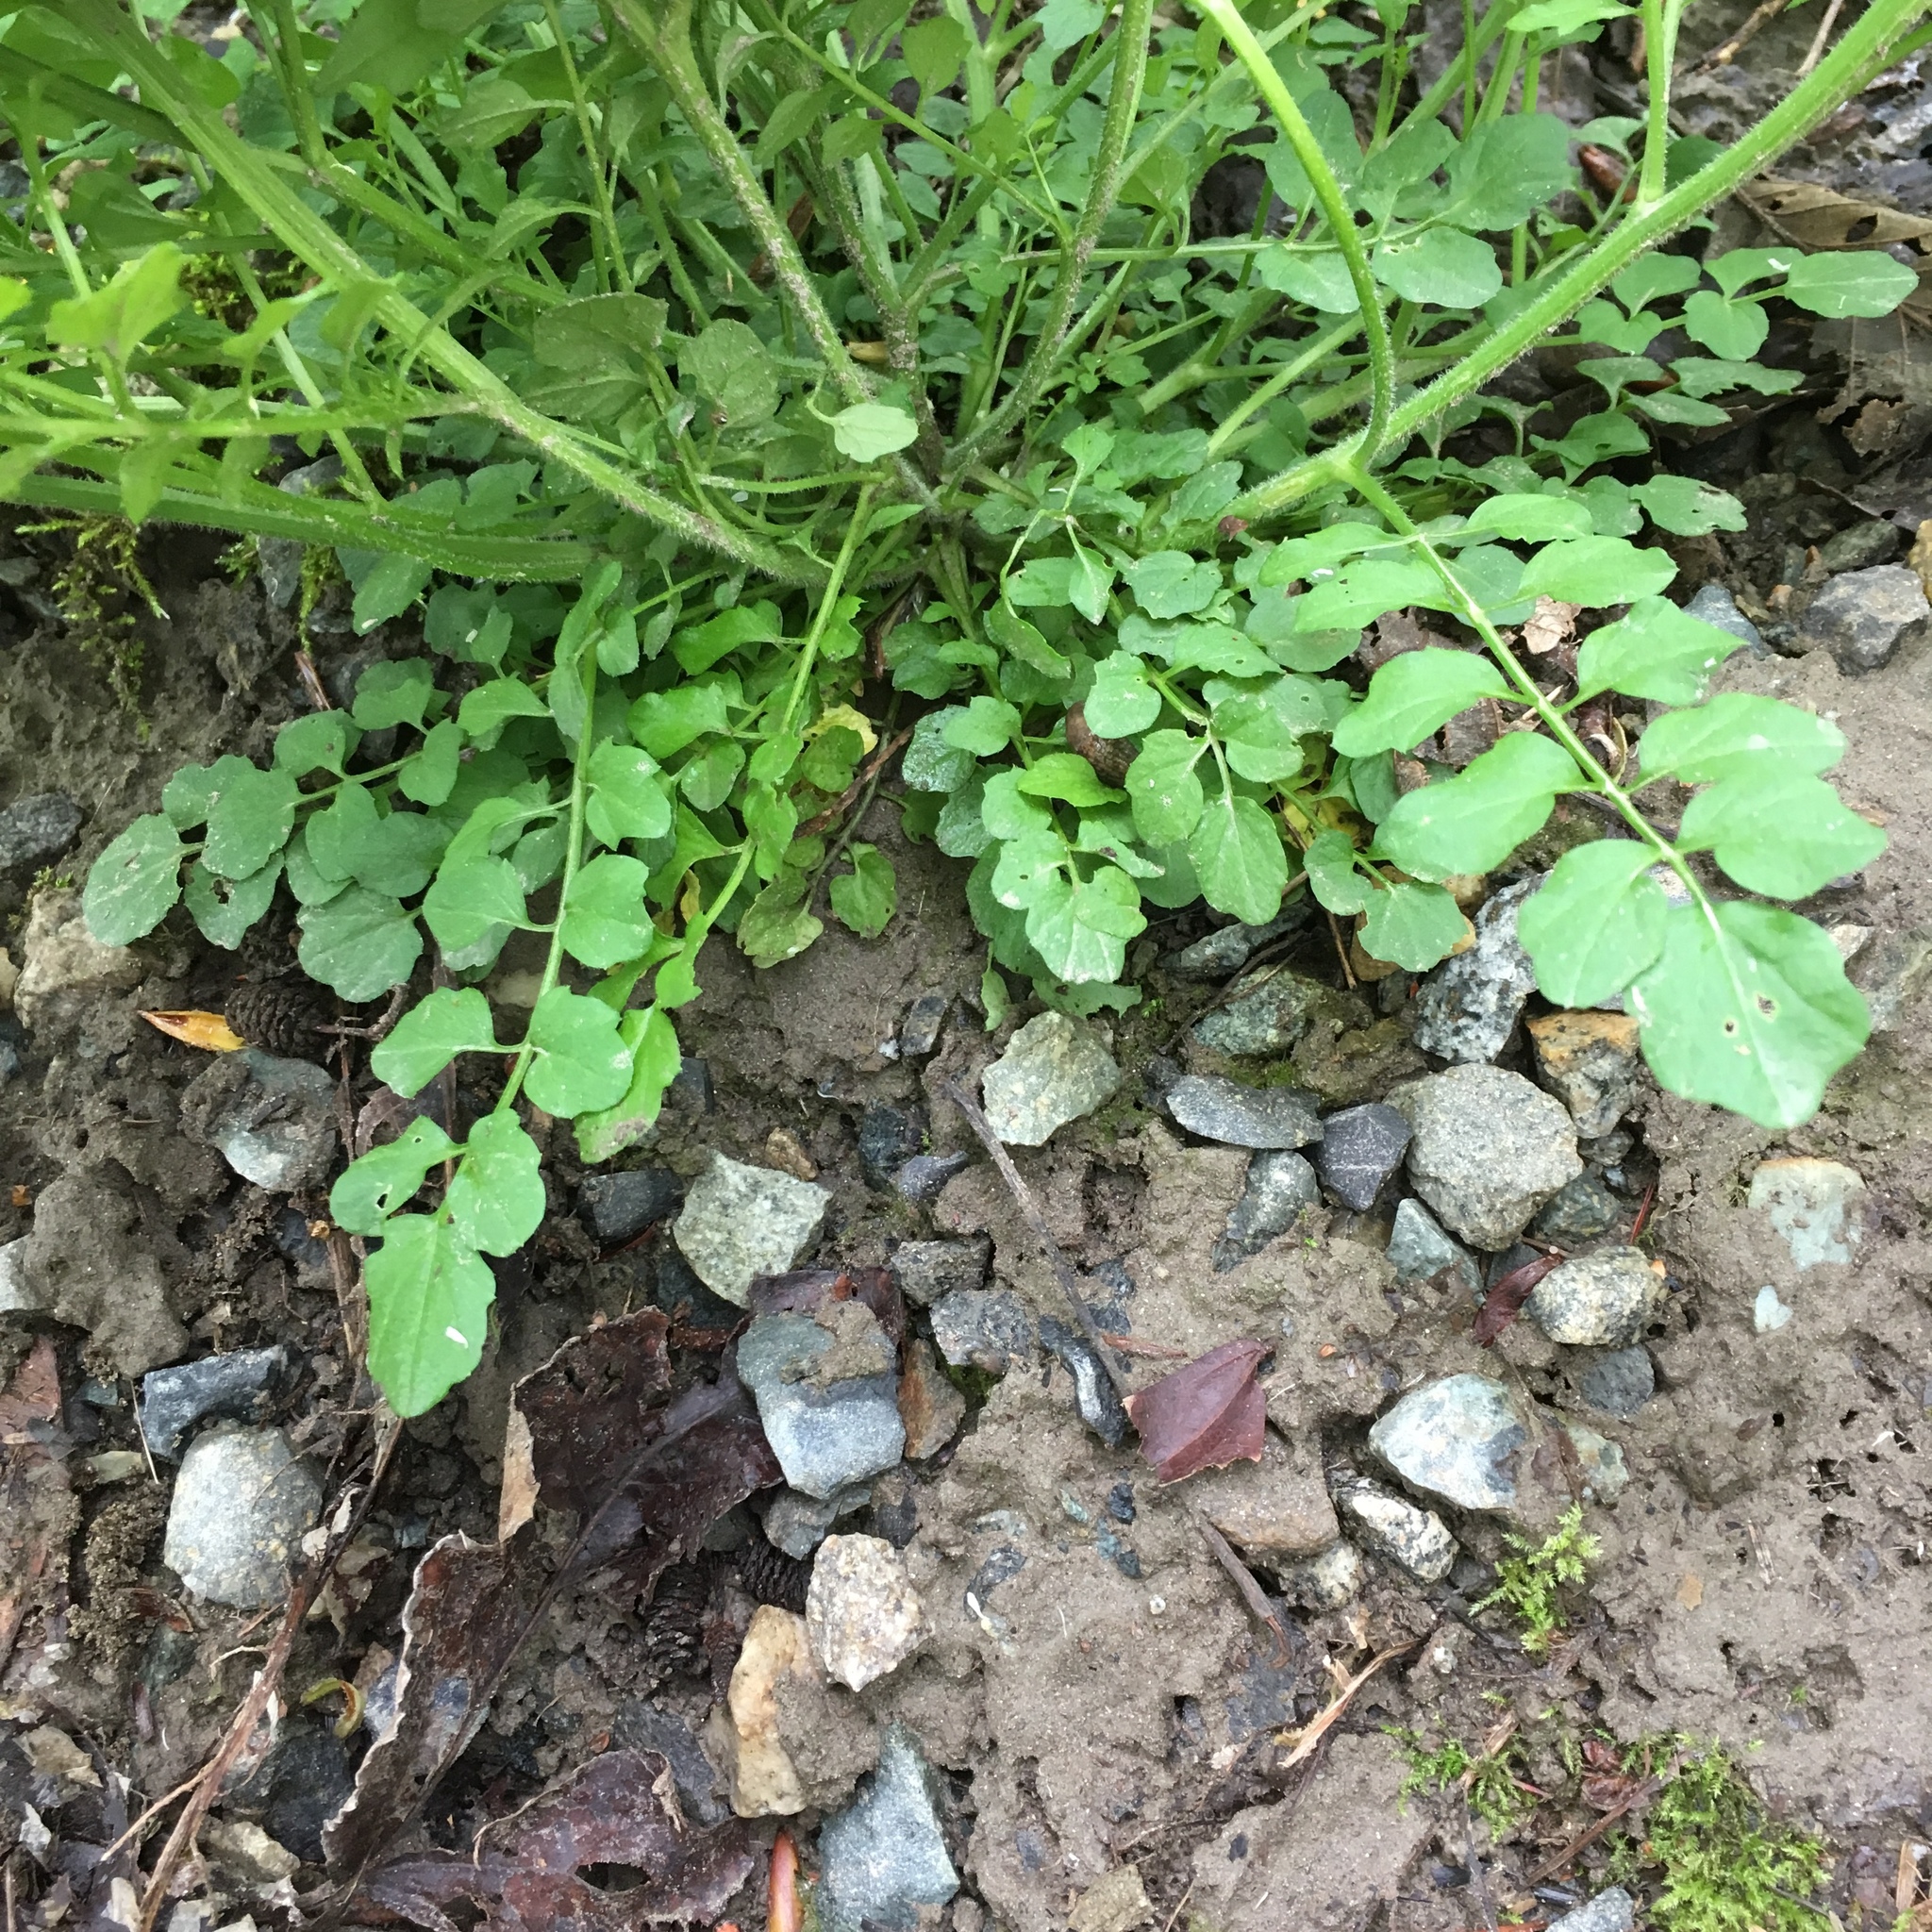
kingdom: Plantae
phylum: Tracheophyta
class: Magnoliopsida
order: Brassicales
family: Brassicaceae
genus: Cardamine
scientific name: Cardamine flexuosa
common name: Woodland bittercress
